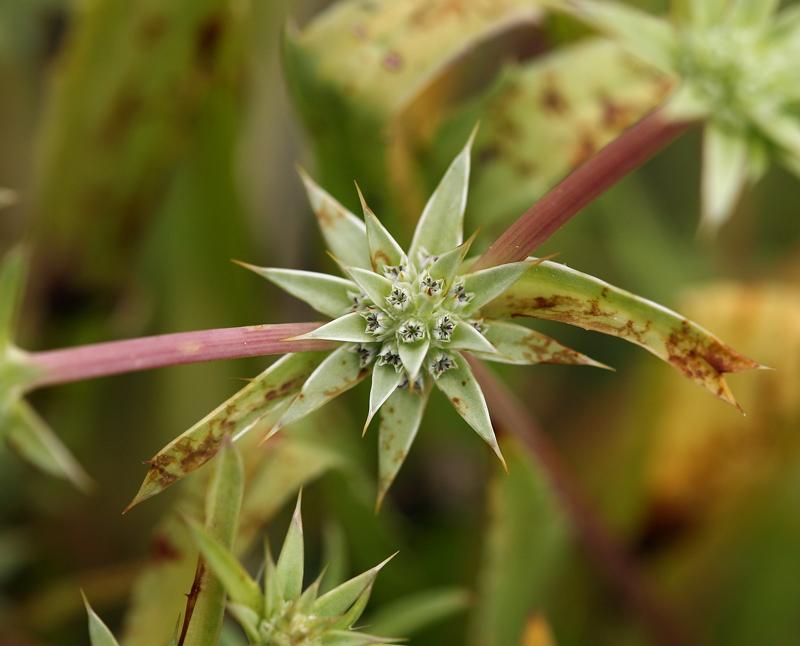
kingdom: Plantae
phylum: Tracheophyta
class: Magnoliopsida
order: Apiales
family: Apiaceae
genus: Eryngium
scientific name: Eryngium armatum
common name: Coyote thistle
